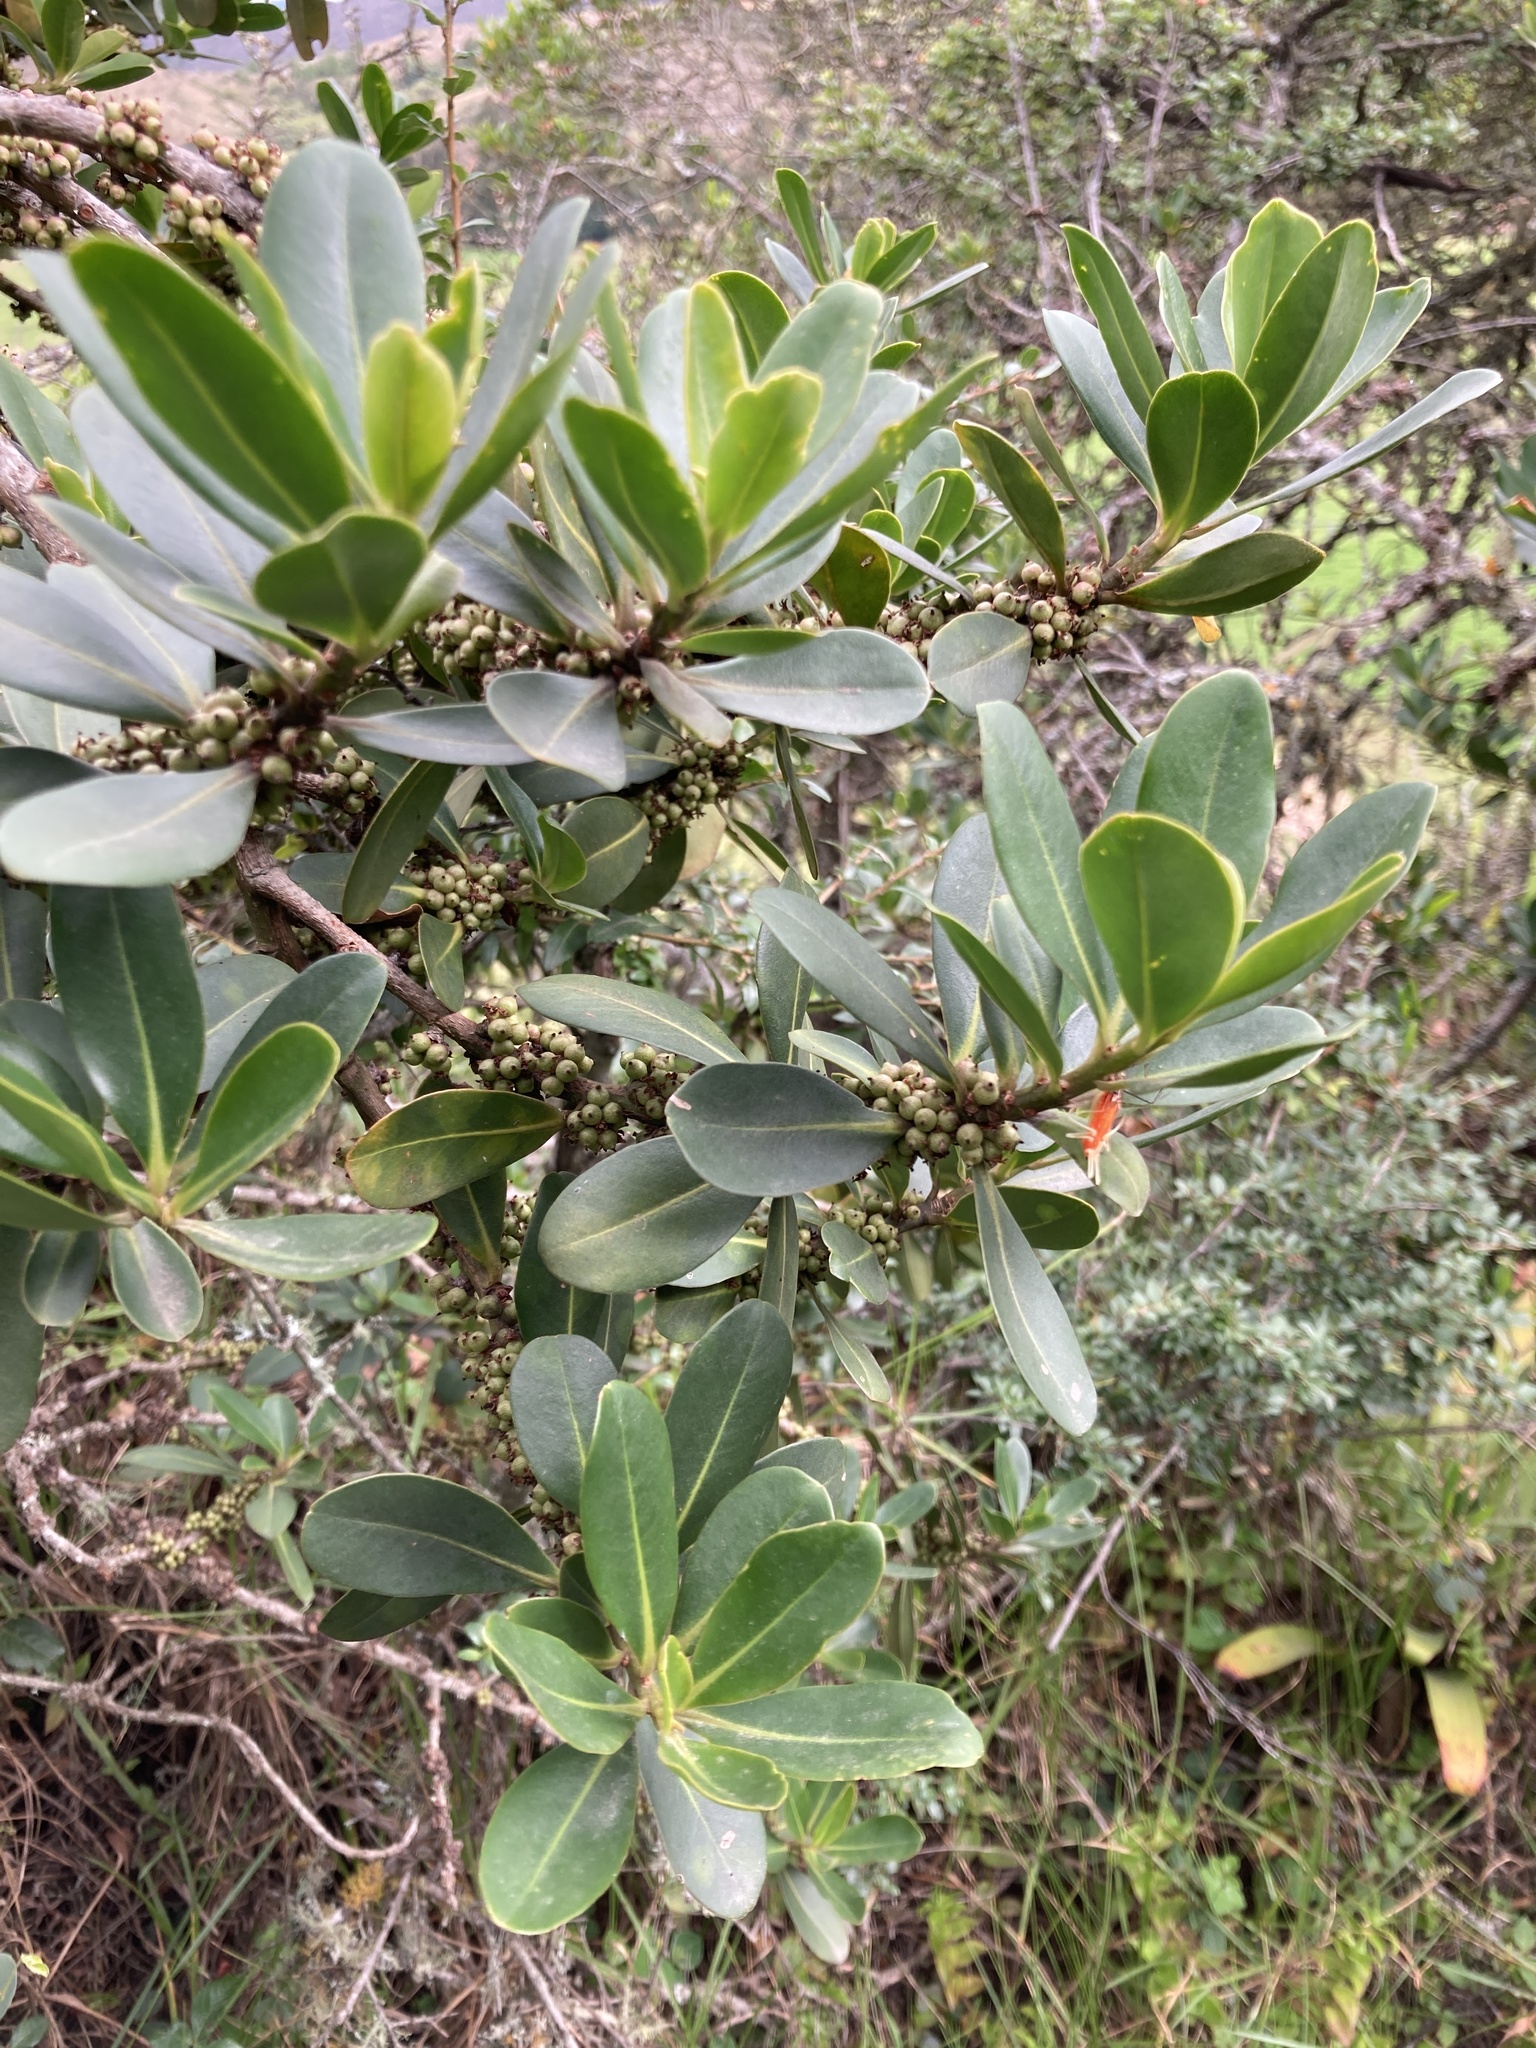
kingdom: Plantae
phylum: Tracheophyta
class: Magnoliopsida
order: Ericales
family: Primulaceae
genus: Myrsine
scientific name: Myrsine guianensis
